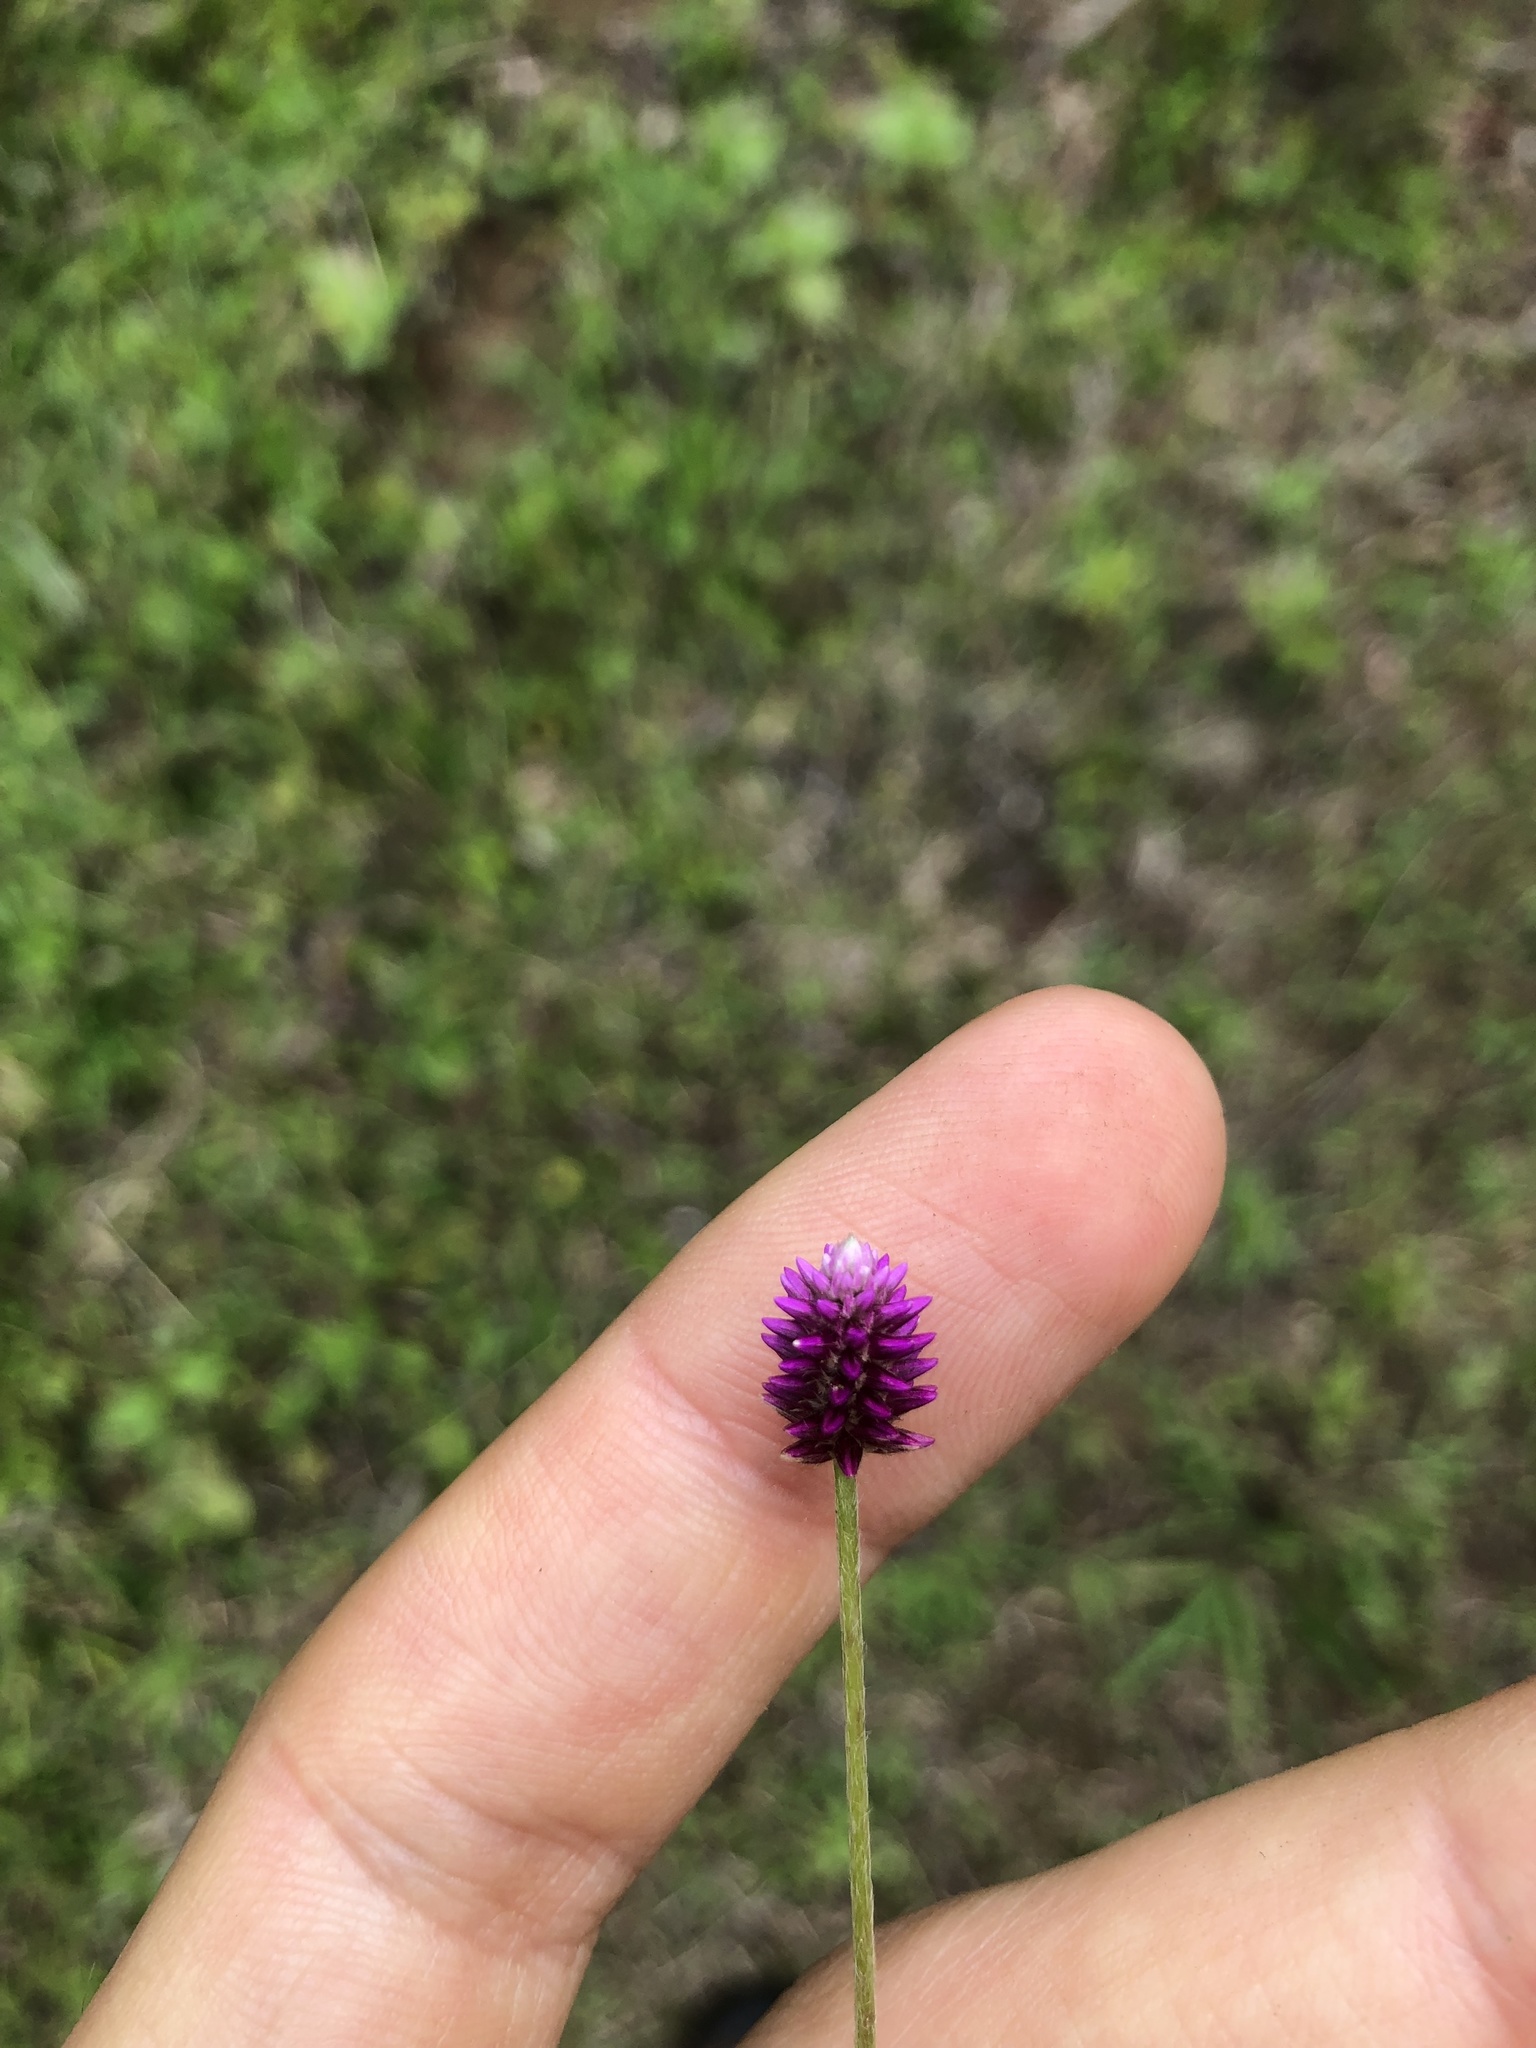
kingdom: Plantae
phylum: Tracheophyta
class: Magnoliopsida
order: Caryophyllales
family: Amaranthaceae
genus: Alternanthera
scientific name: Alternanthera porrigens
